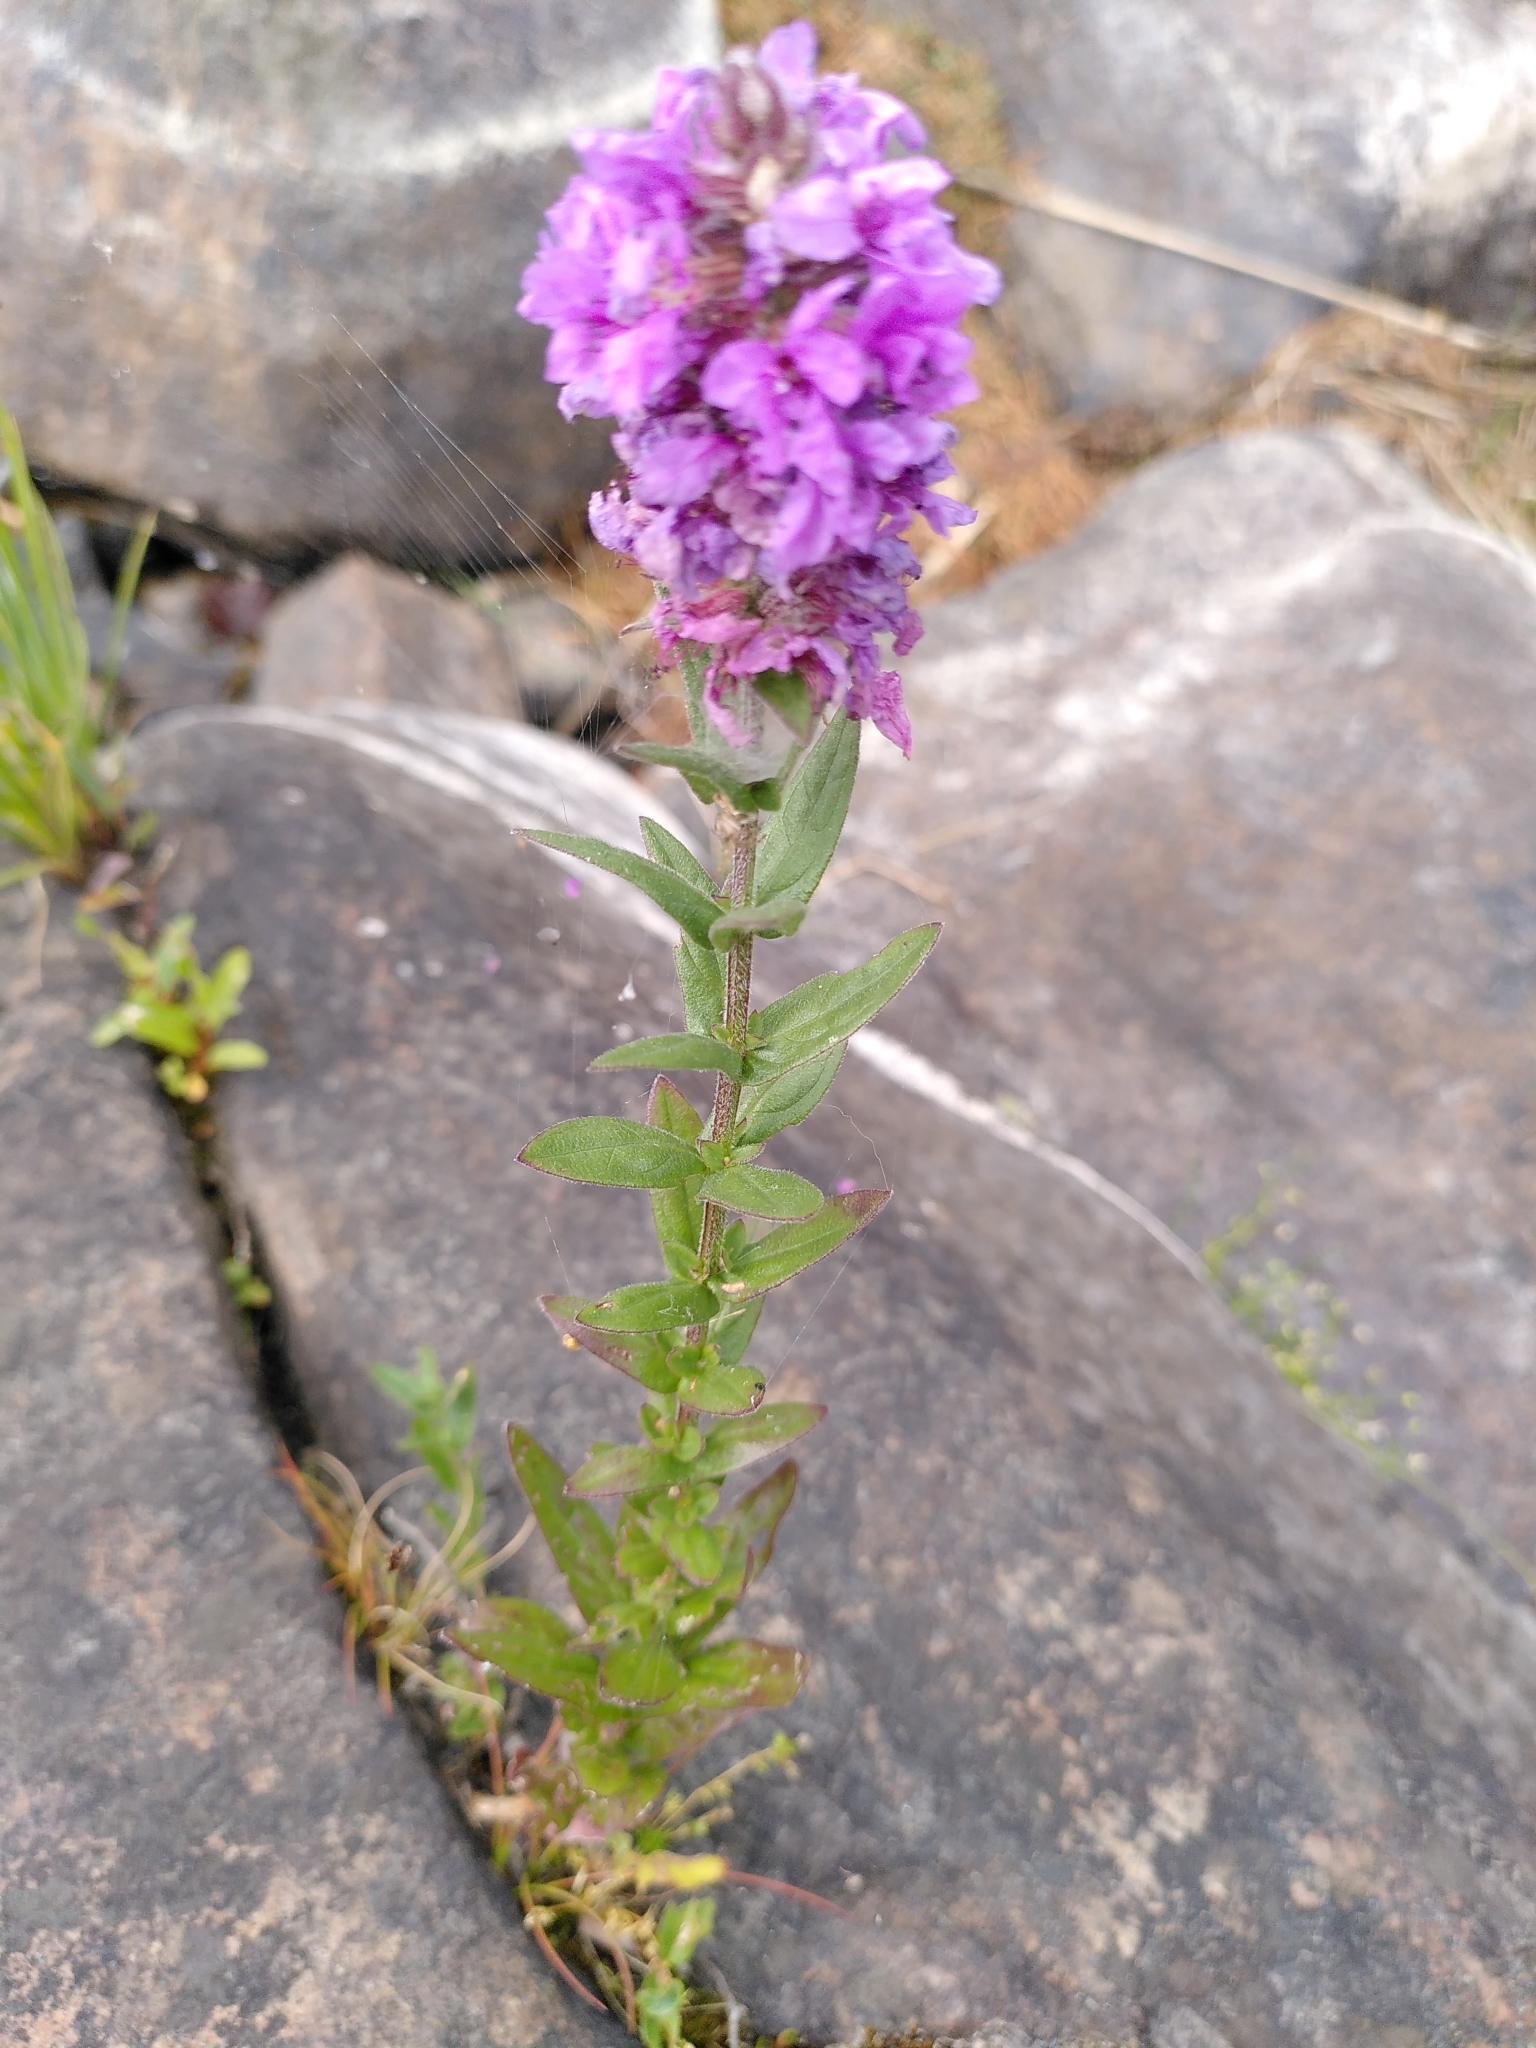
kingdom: Plantae
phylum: Tracheophyta
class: Magnoliopsida
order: Myrtales
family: Lythraceae
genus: Lythrum
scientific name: Lythrum salicaria
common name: Purple loosestrife
